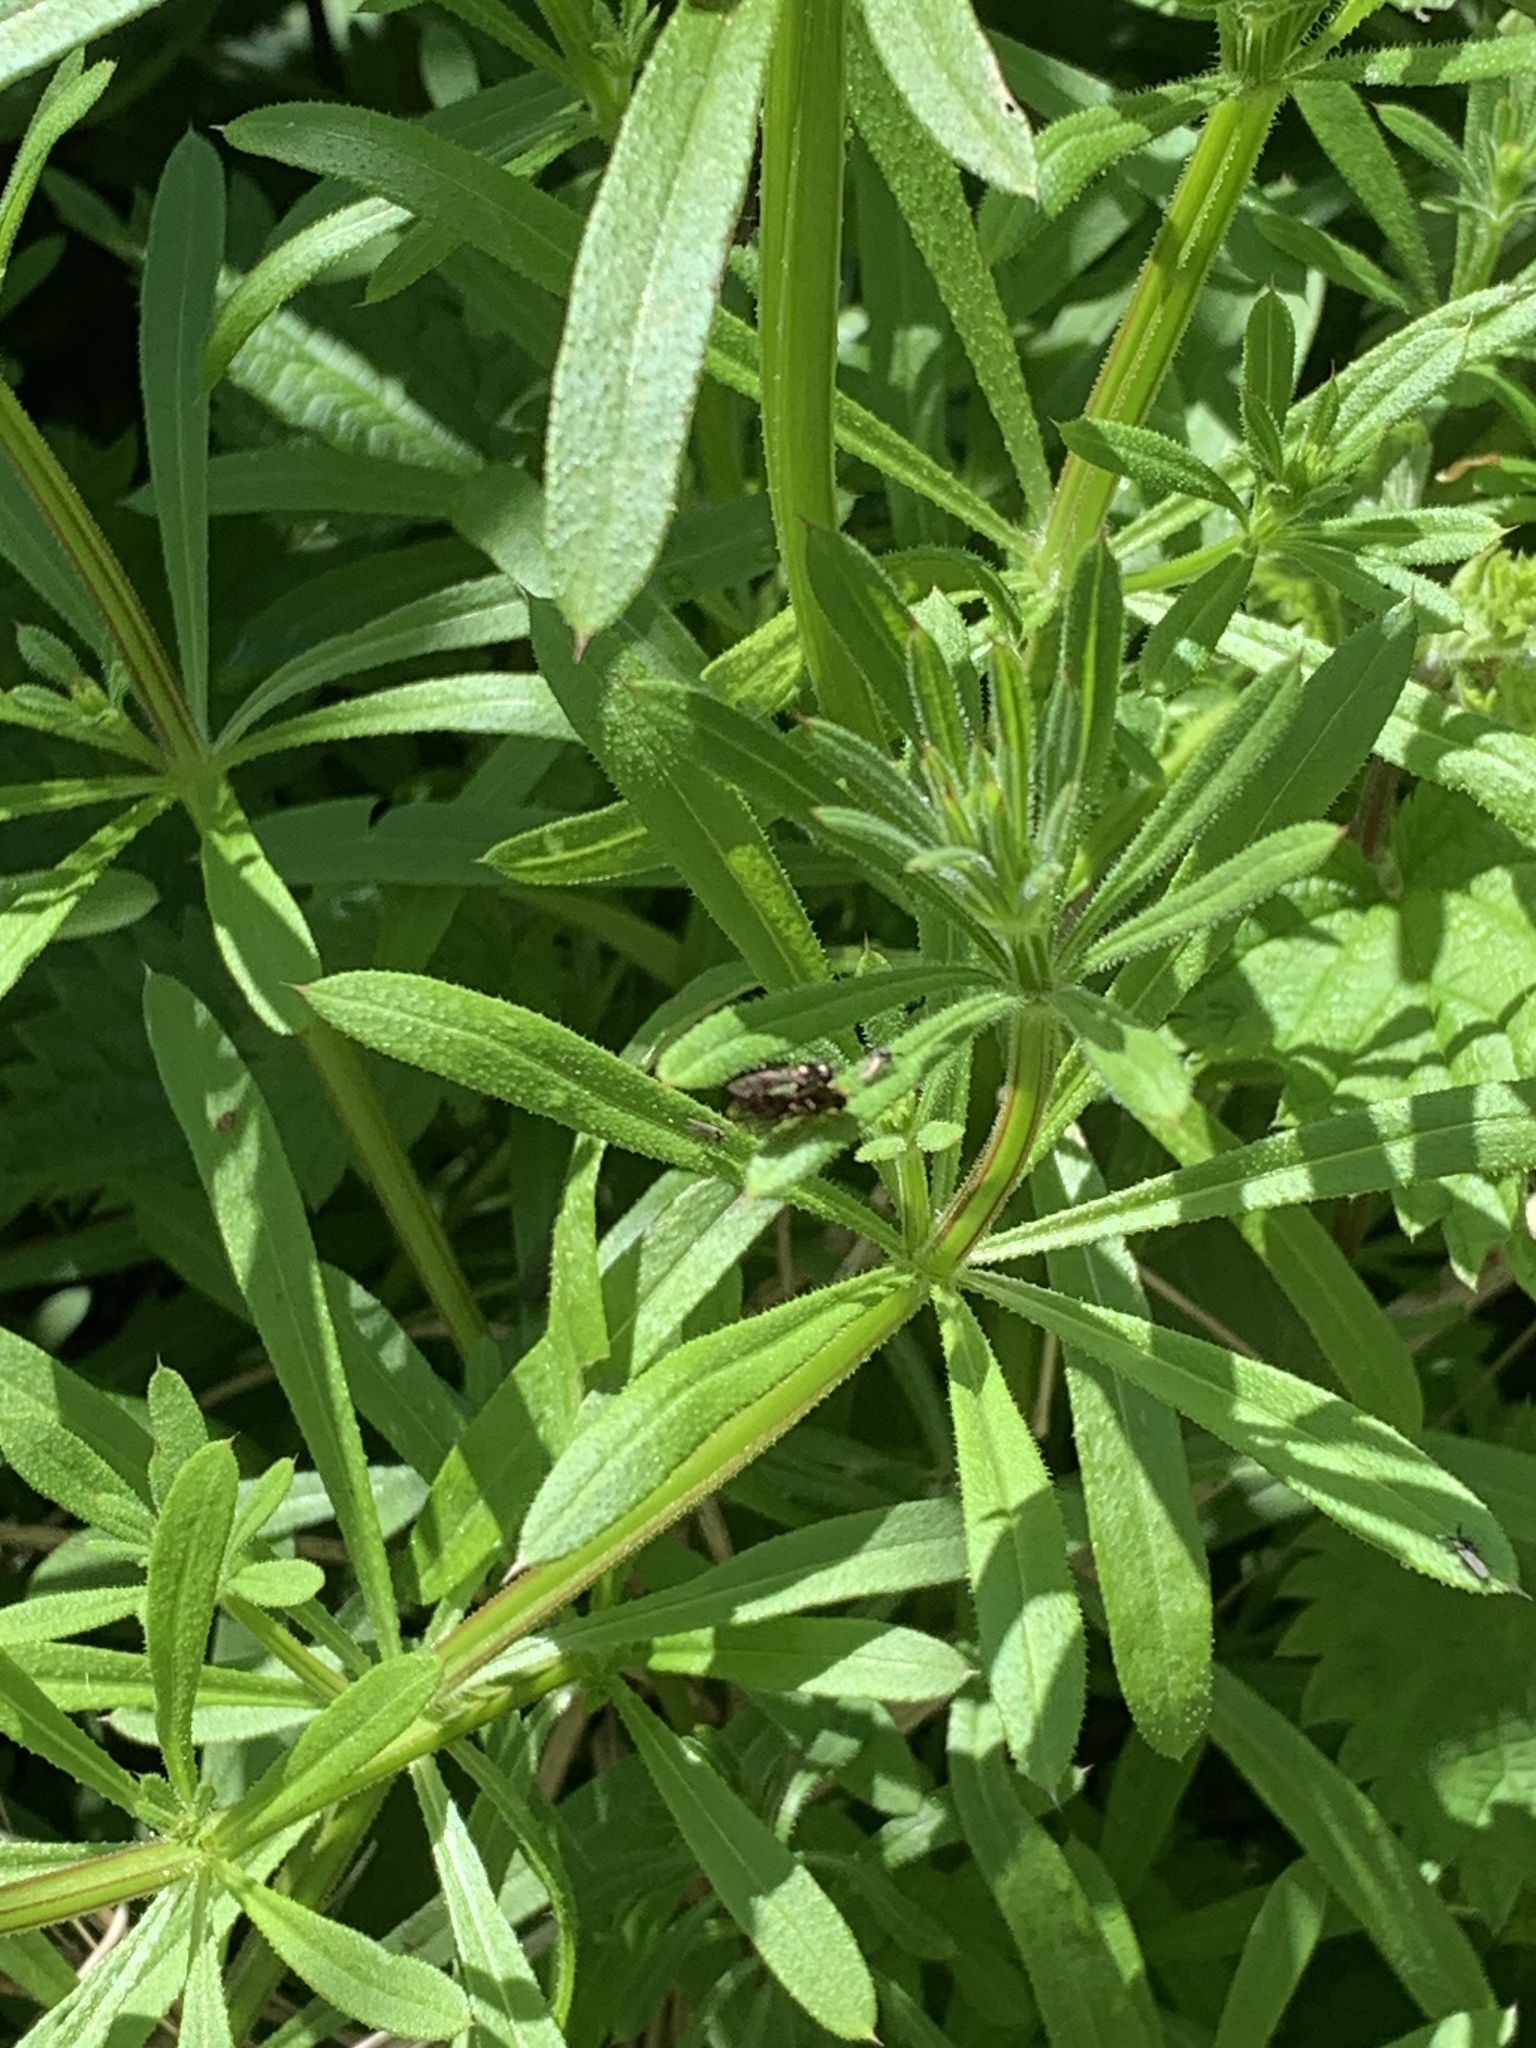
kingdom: Plantae
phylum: Tracheophyta
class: Magnoliopsida
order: Gentianales
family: Rubiaceae
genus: Galium
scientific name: Galium aparine
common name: Cleavers
